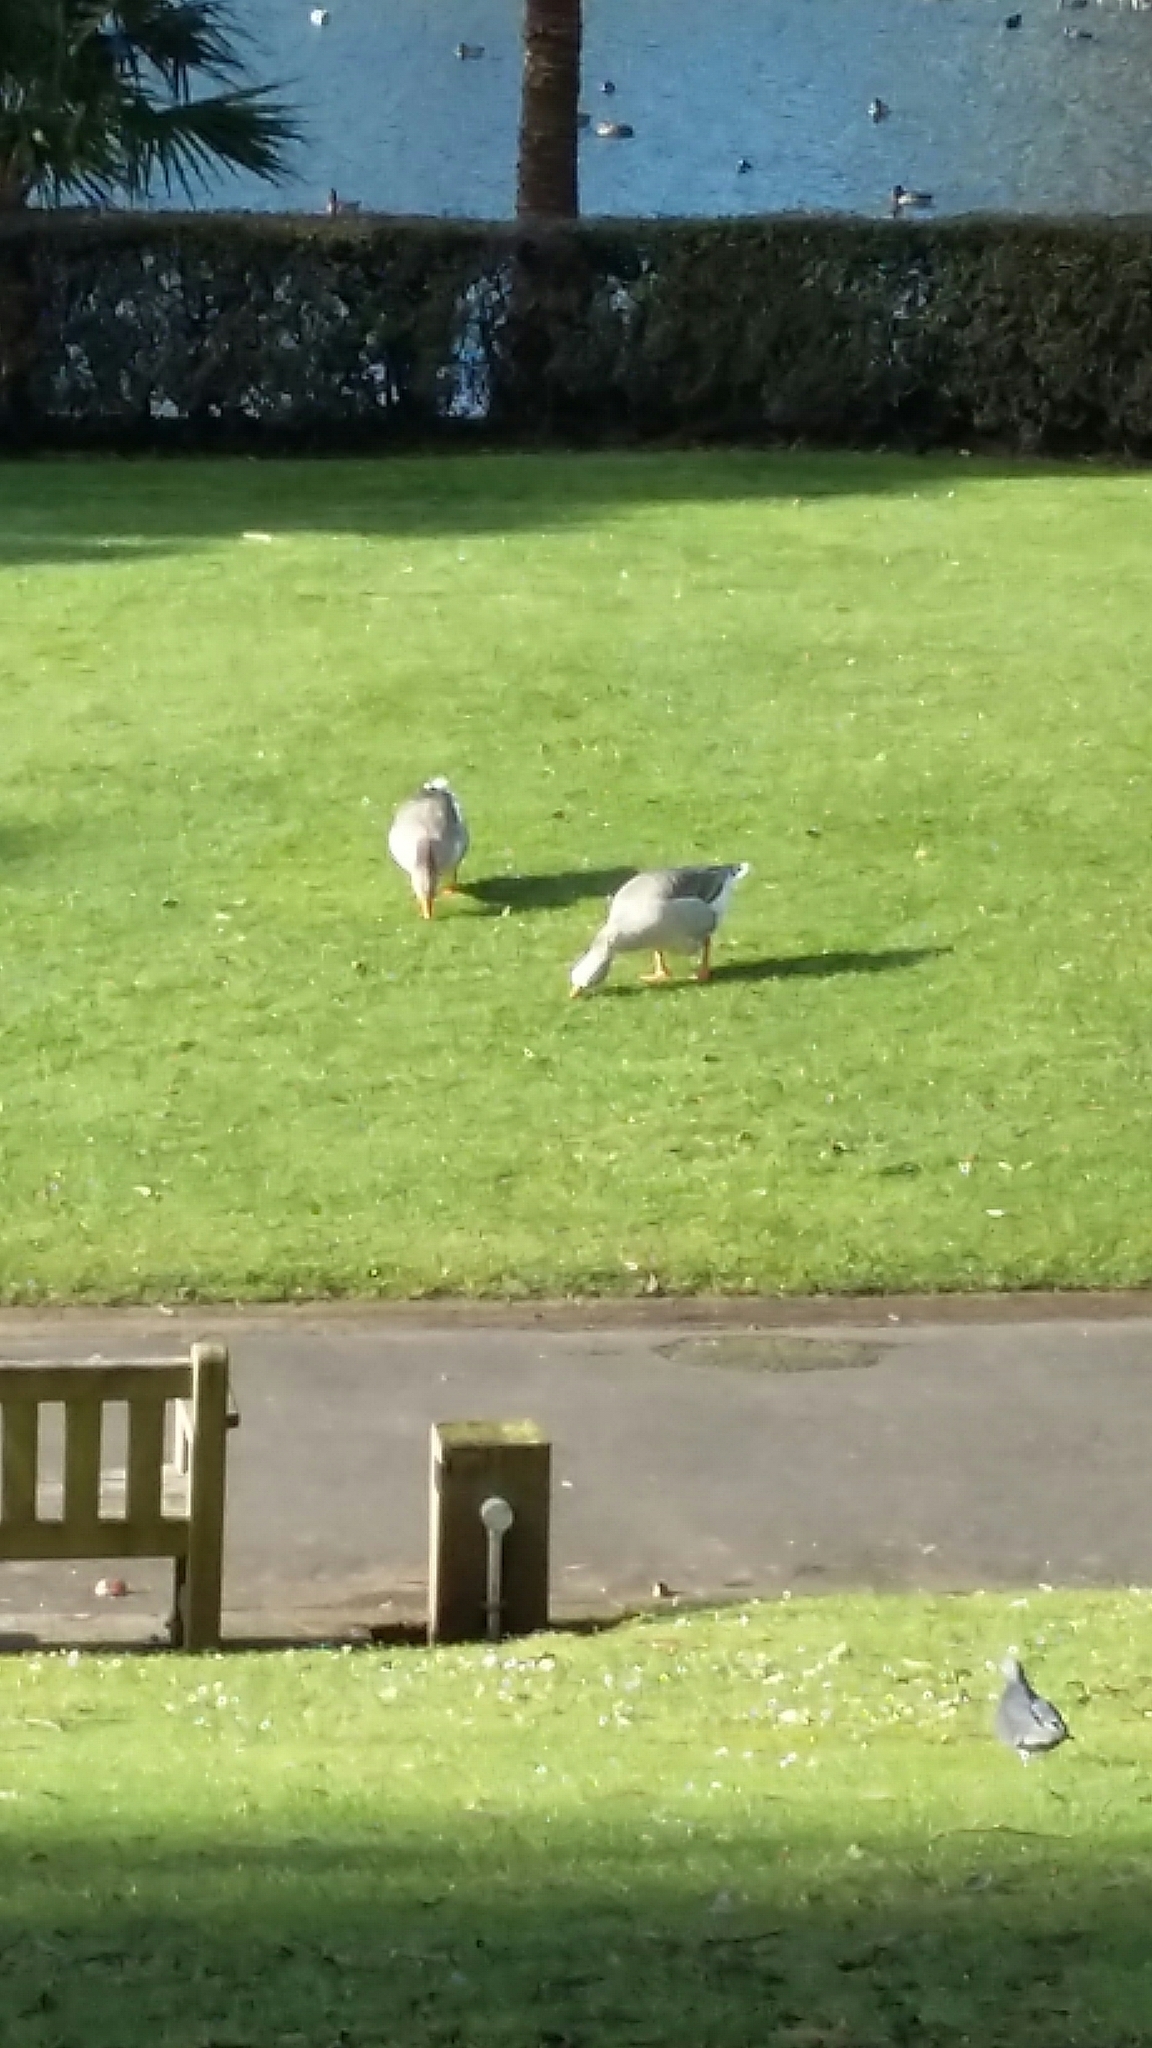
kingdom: Animalia
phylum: Chordata
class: Aves
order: Anseriformes
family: Anatidae
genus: Anser
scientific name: Anser anser
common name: Greylag goose
